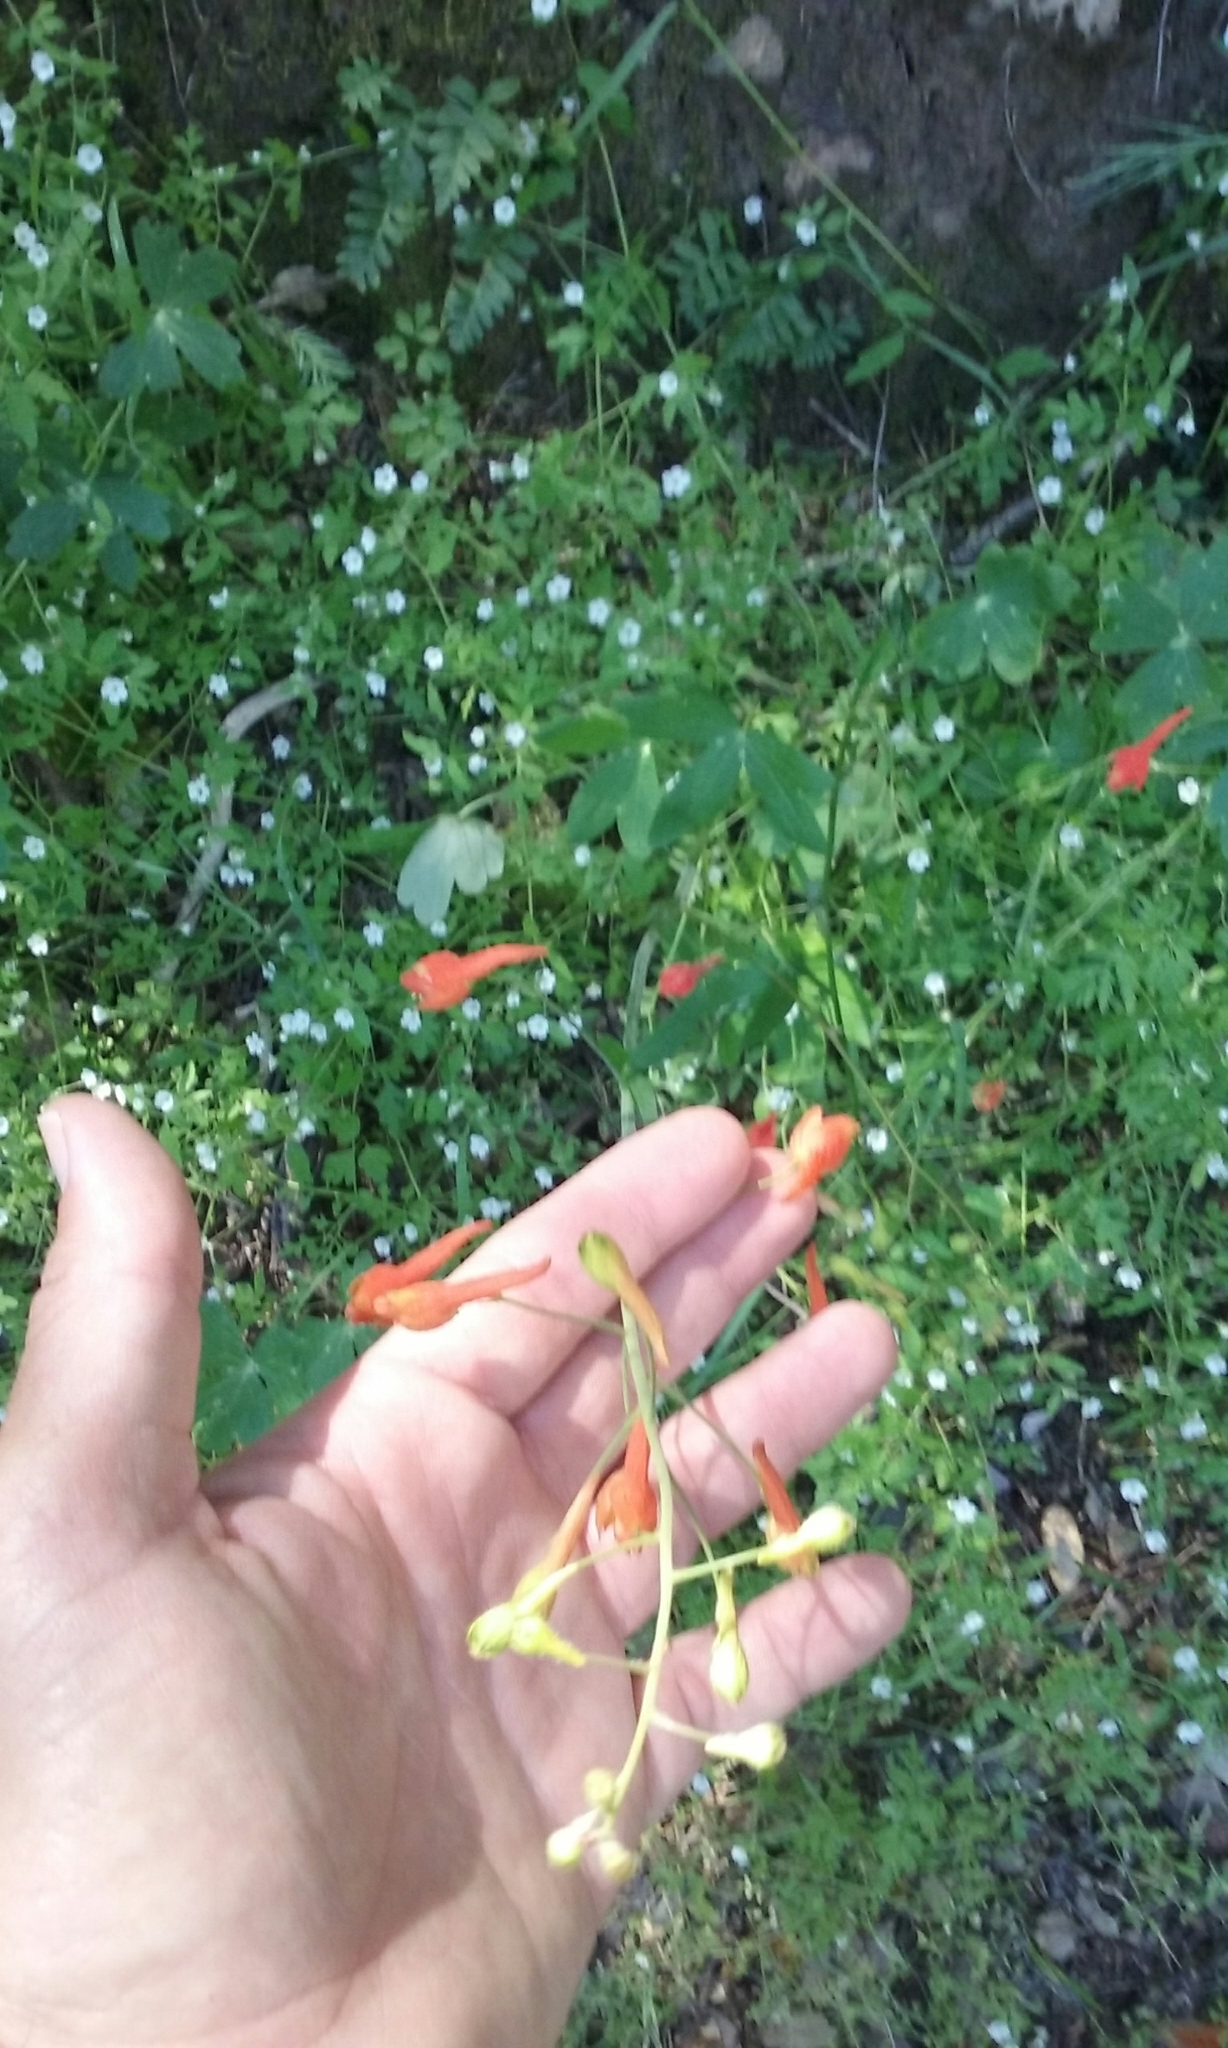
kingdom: Plantae
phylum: Tracheophyta
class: Magnoliopsida
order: Ranunculales
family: Ranunculaceae
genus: Delphinium
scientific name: Delphinium nudicaule
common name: Red larkspur
